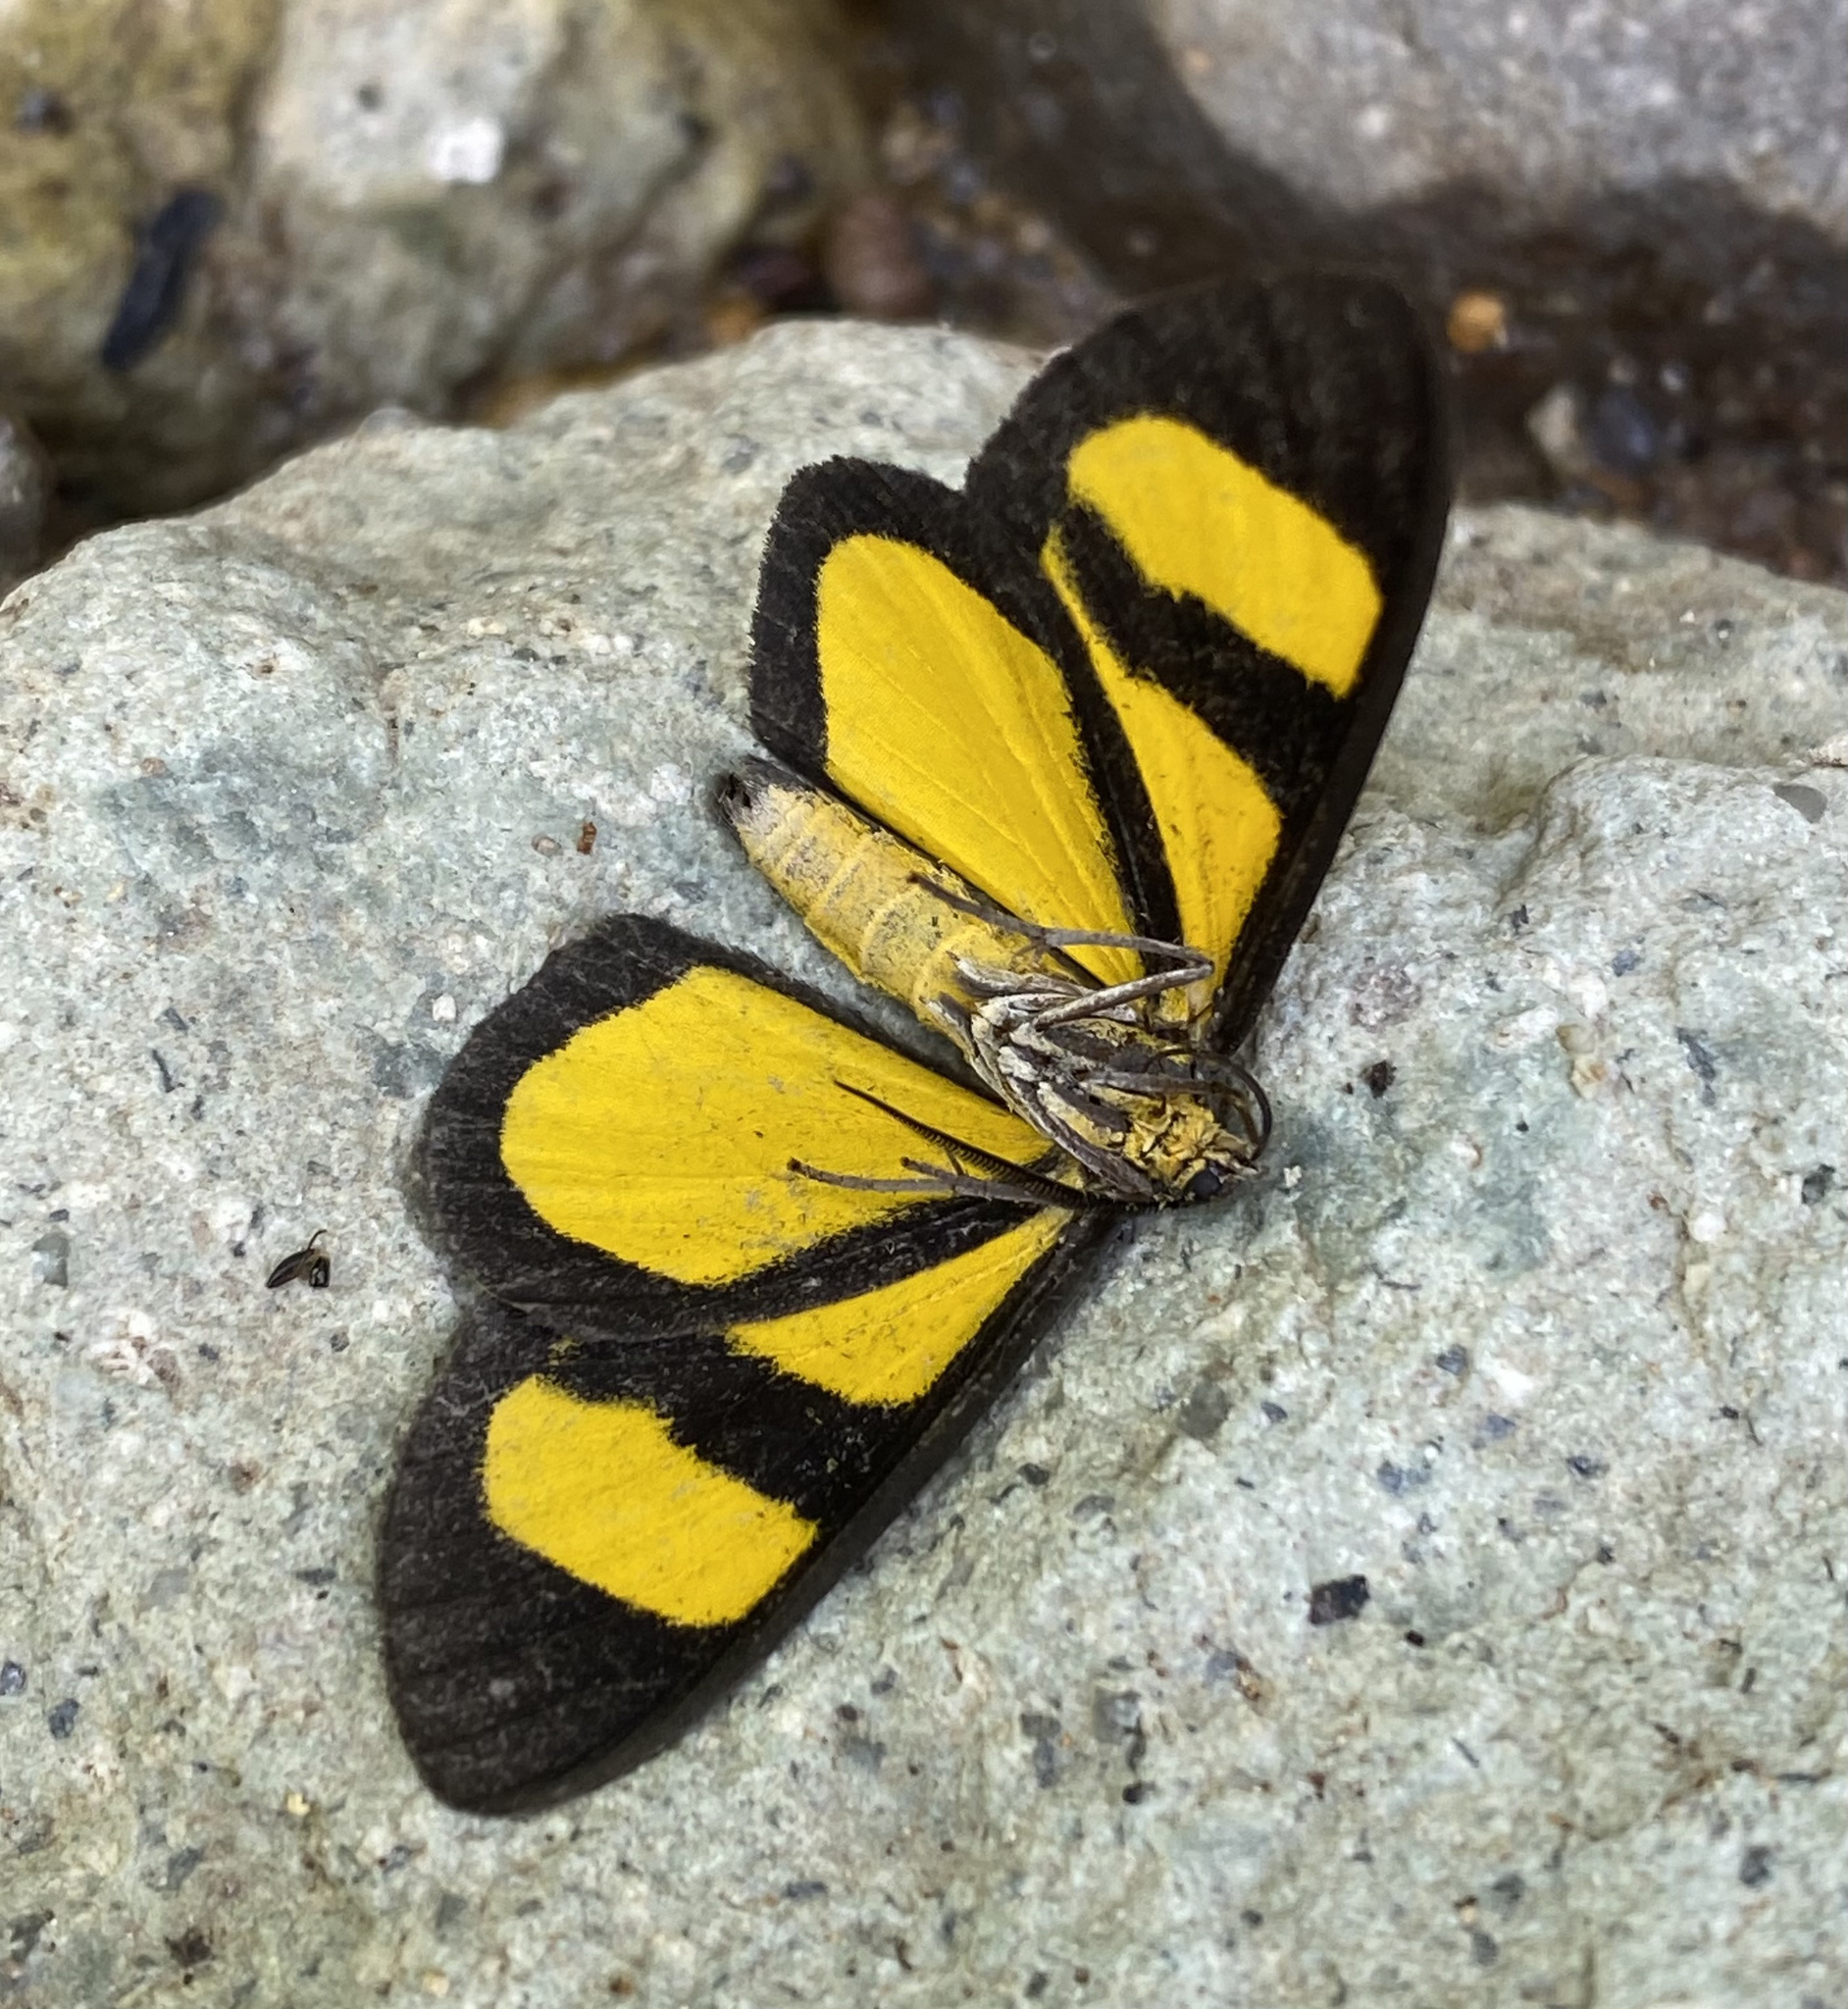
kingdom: Animalia
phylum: Arthropoda
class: Insecta
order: Lepidoptera
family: Geometridae
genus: Smicropus
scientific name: Smicropus laeta
